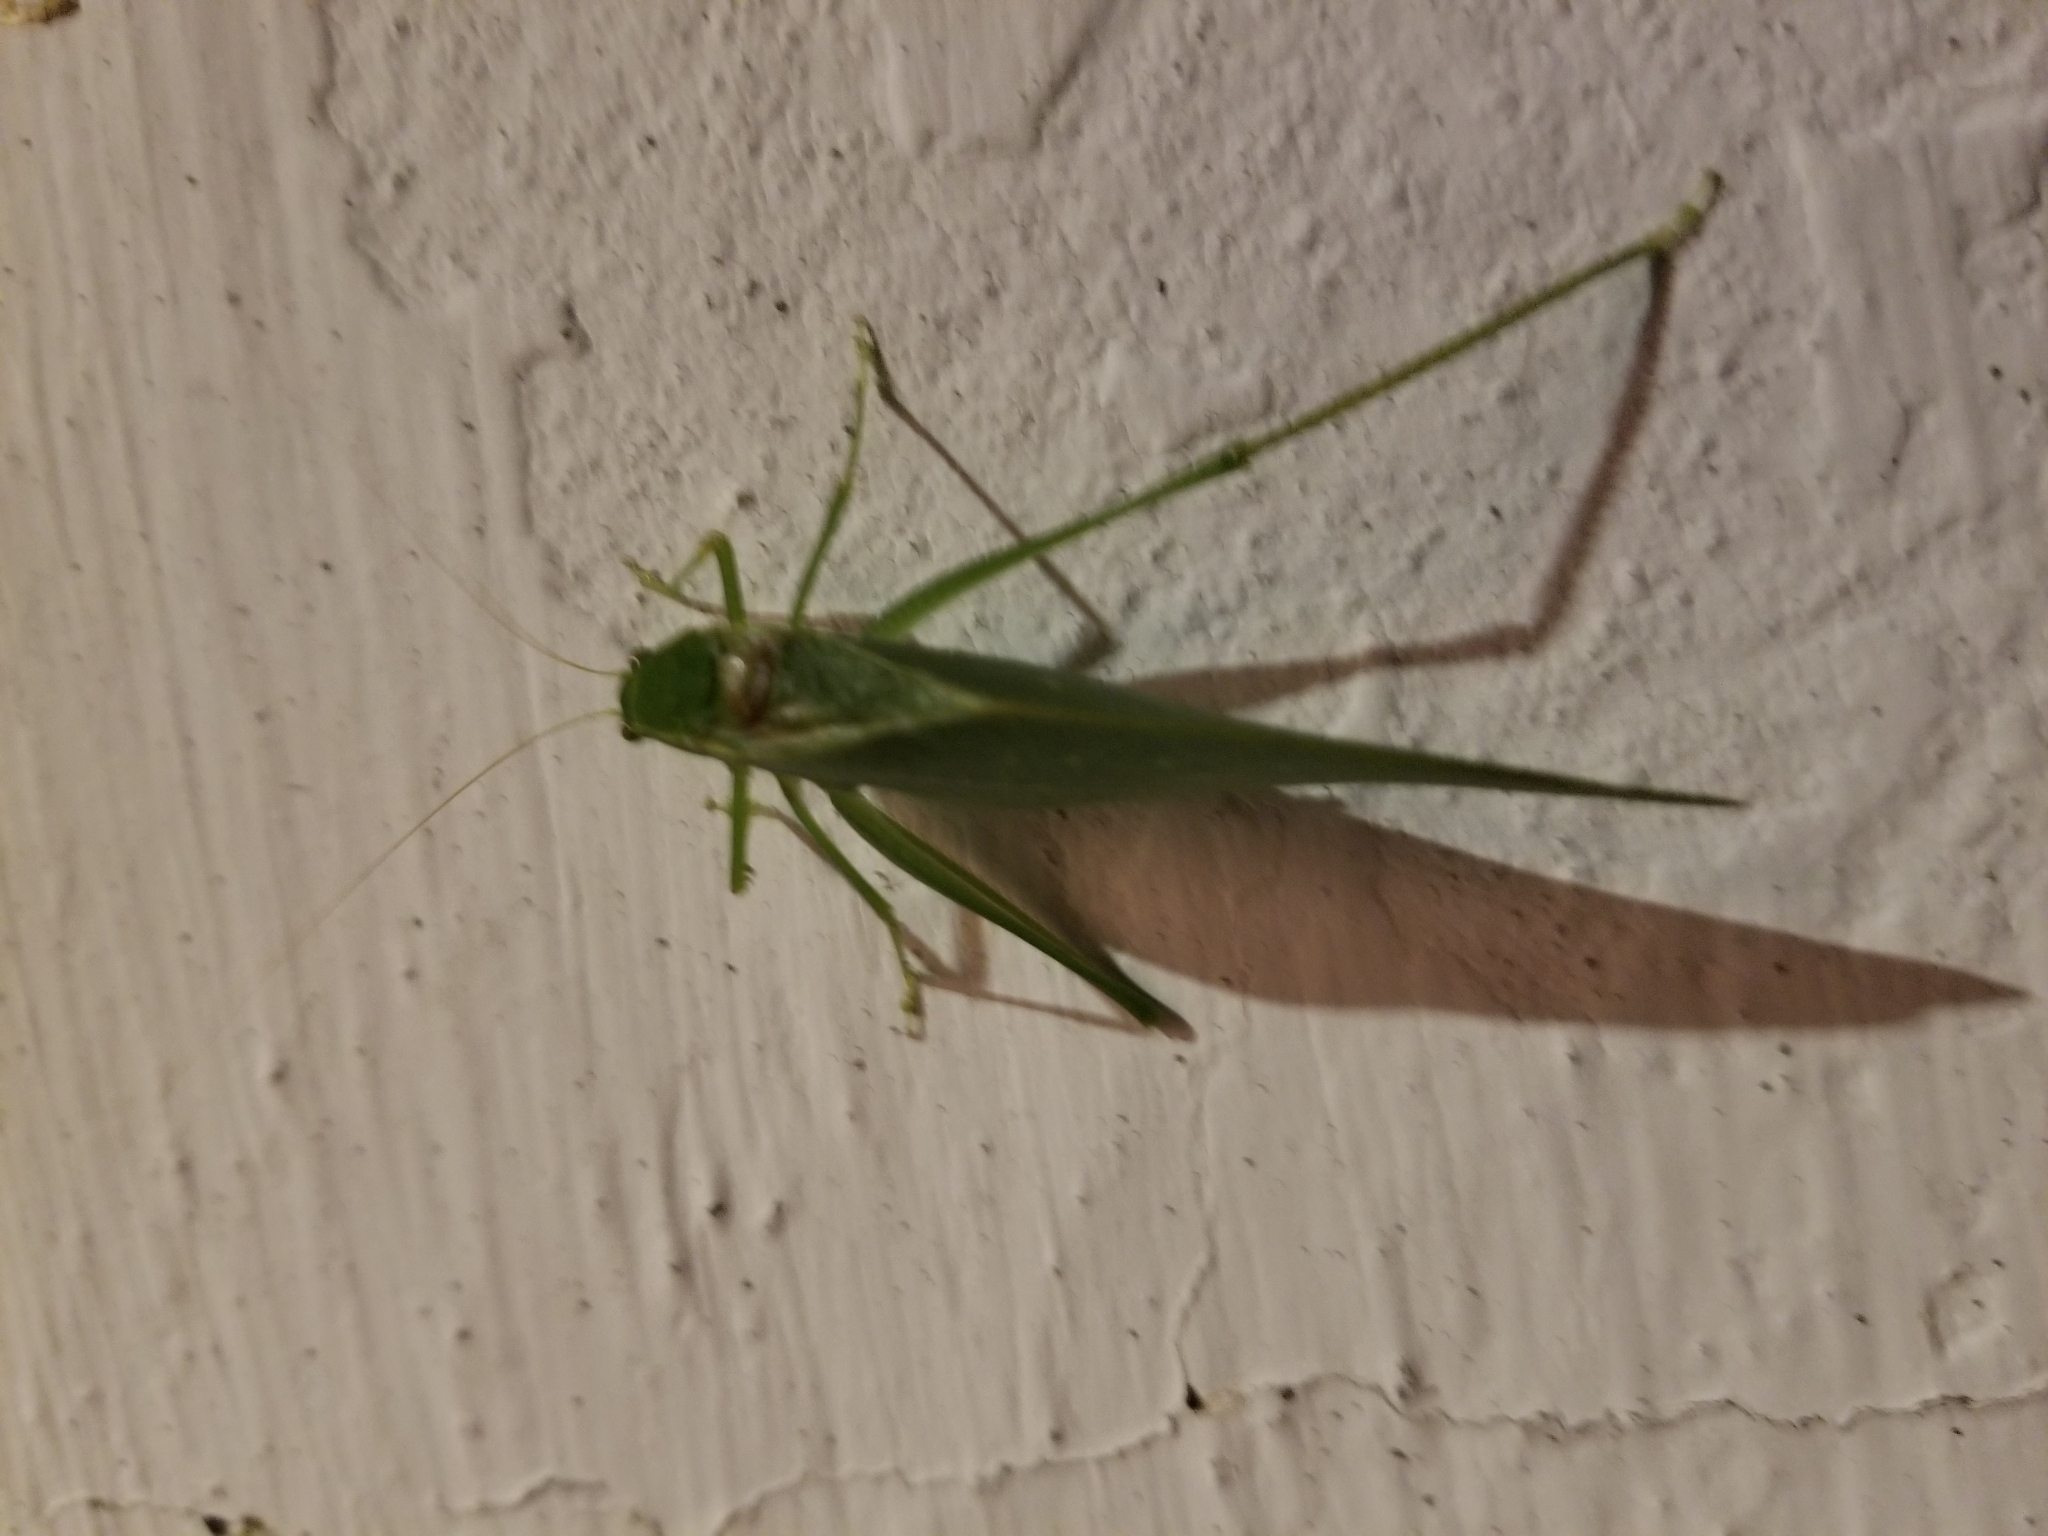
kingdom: Animalia
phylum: Arthropoda
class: Insecta
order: Orthoptera
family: Tettigoniidae
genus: Microcentrum
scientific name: Microcentrum retinerve
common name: Angular-winged katydid
